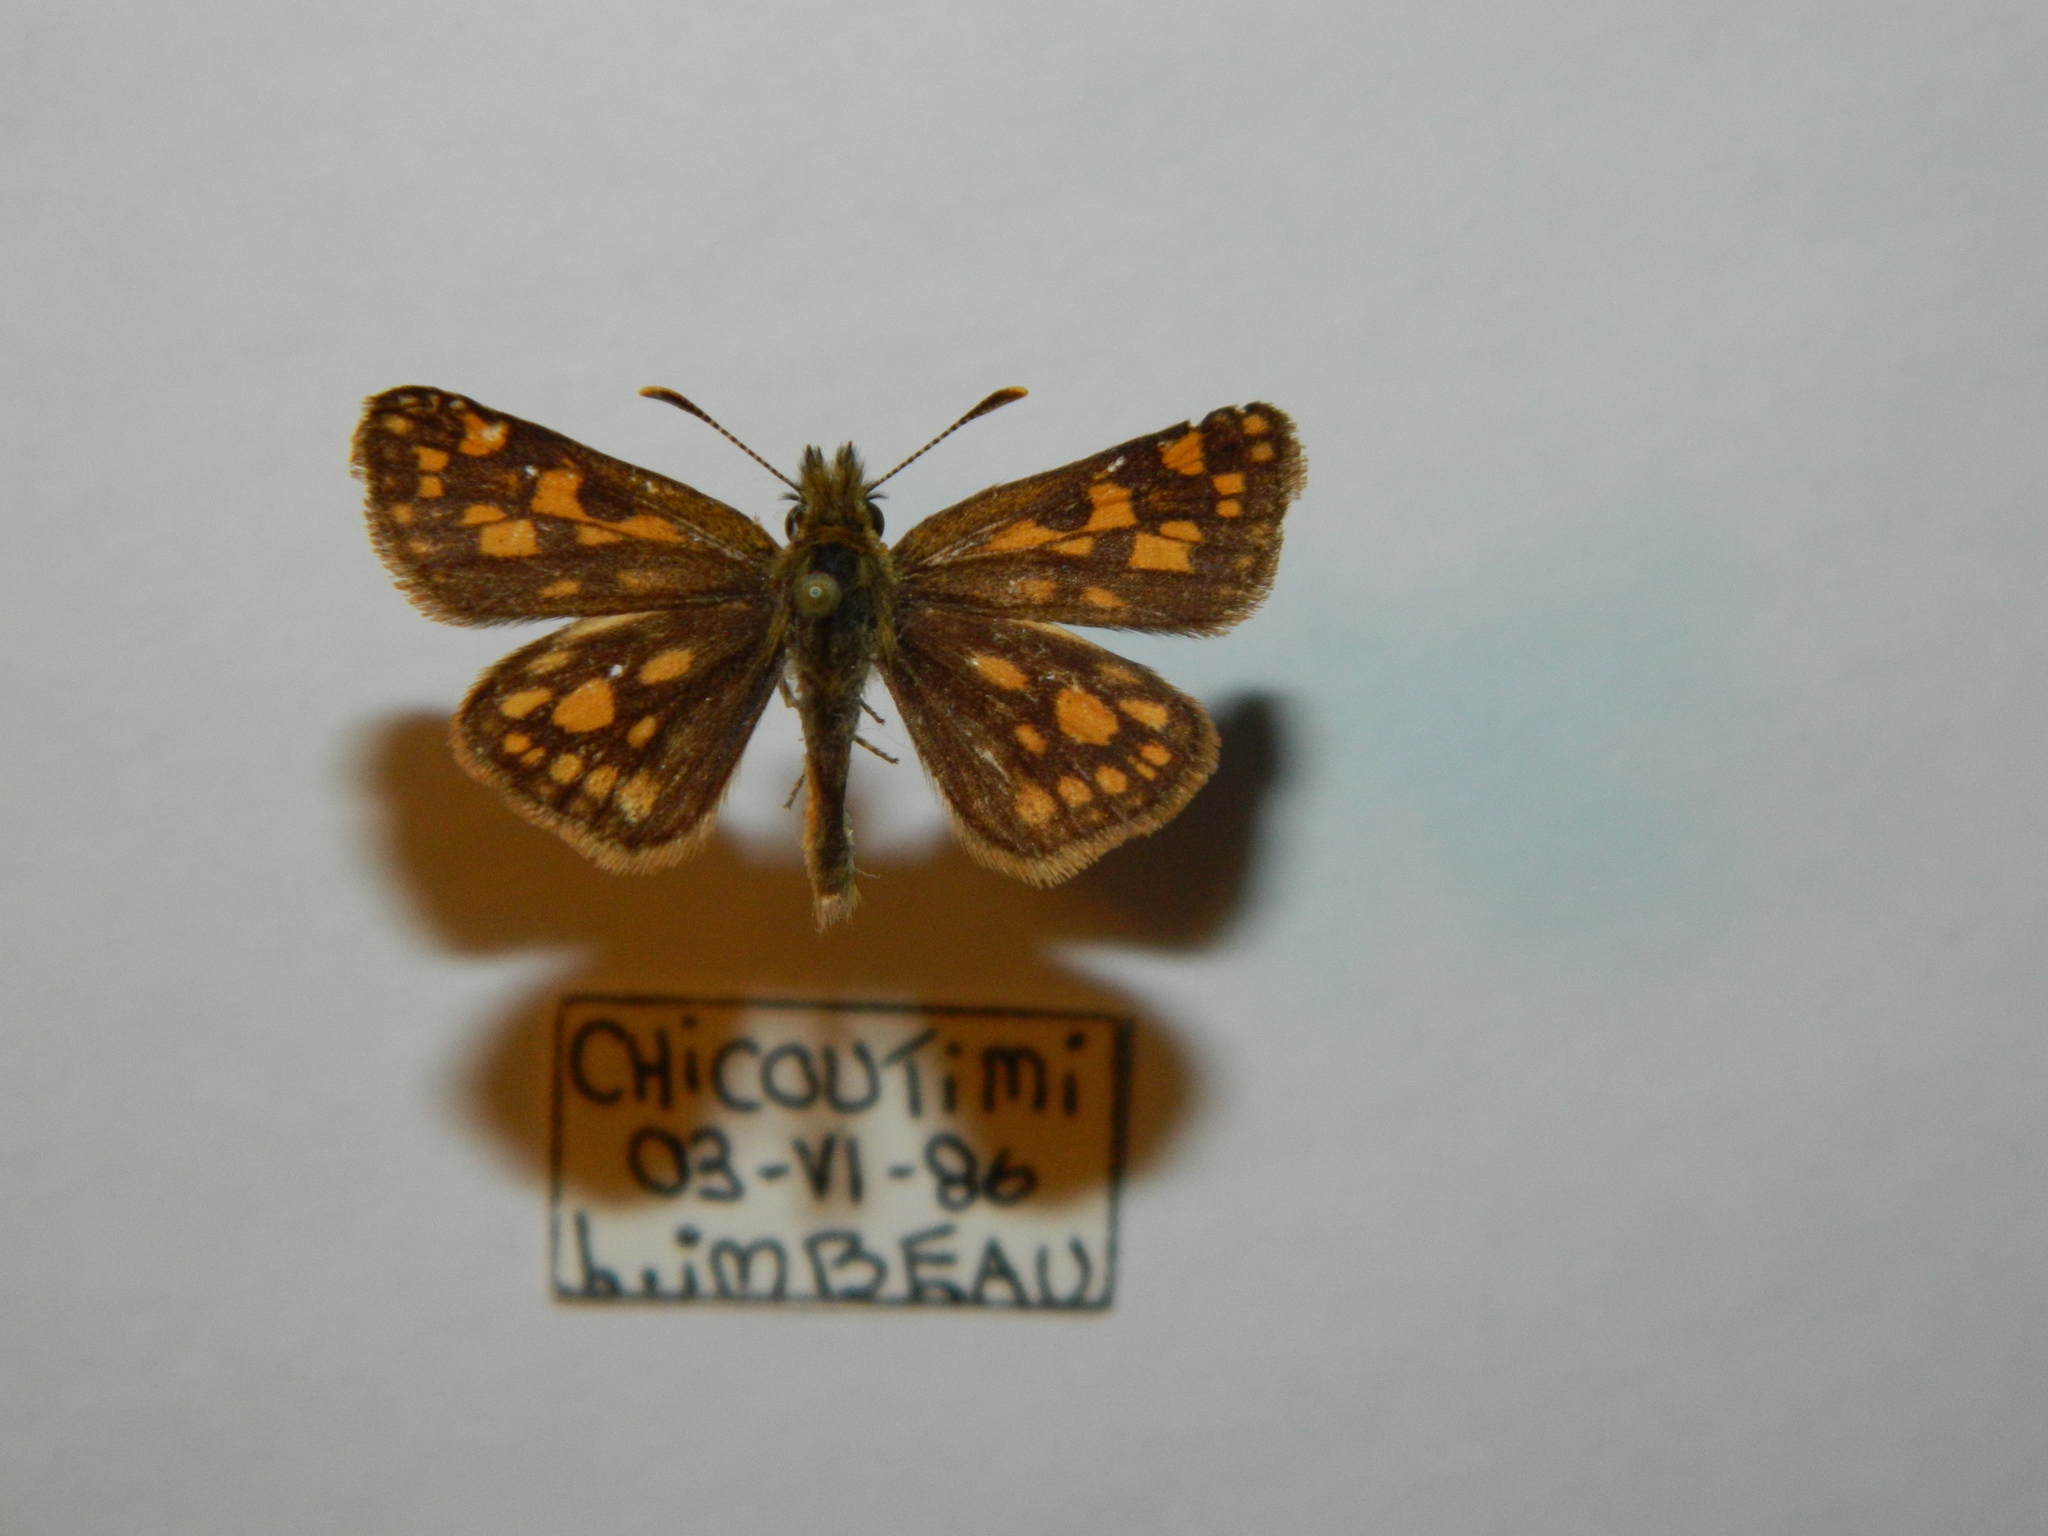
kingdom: Animalia
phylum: Arthropoda
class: Insecta
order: Lepidoptera
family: Hesperiidae
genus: Carterocephalus
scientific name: Carterocephalus mandan
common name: Arctic skipperling
